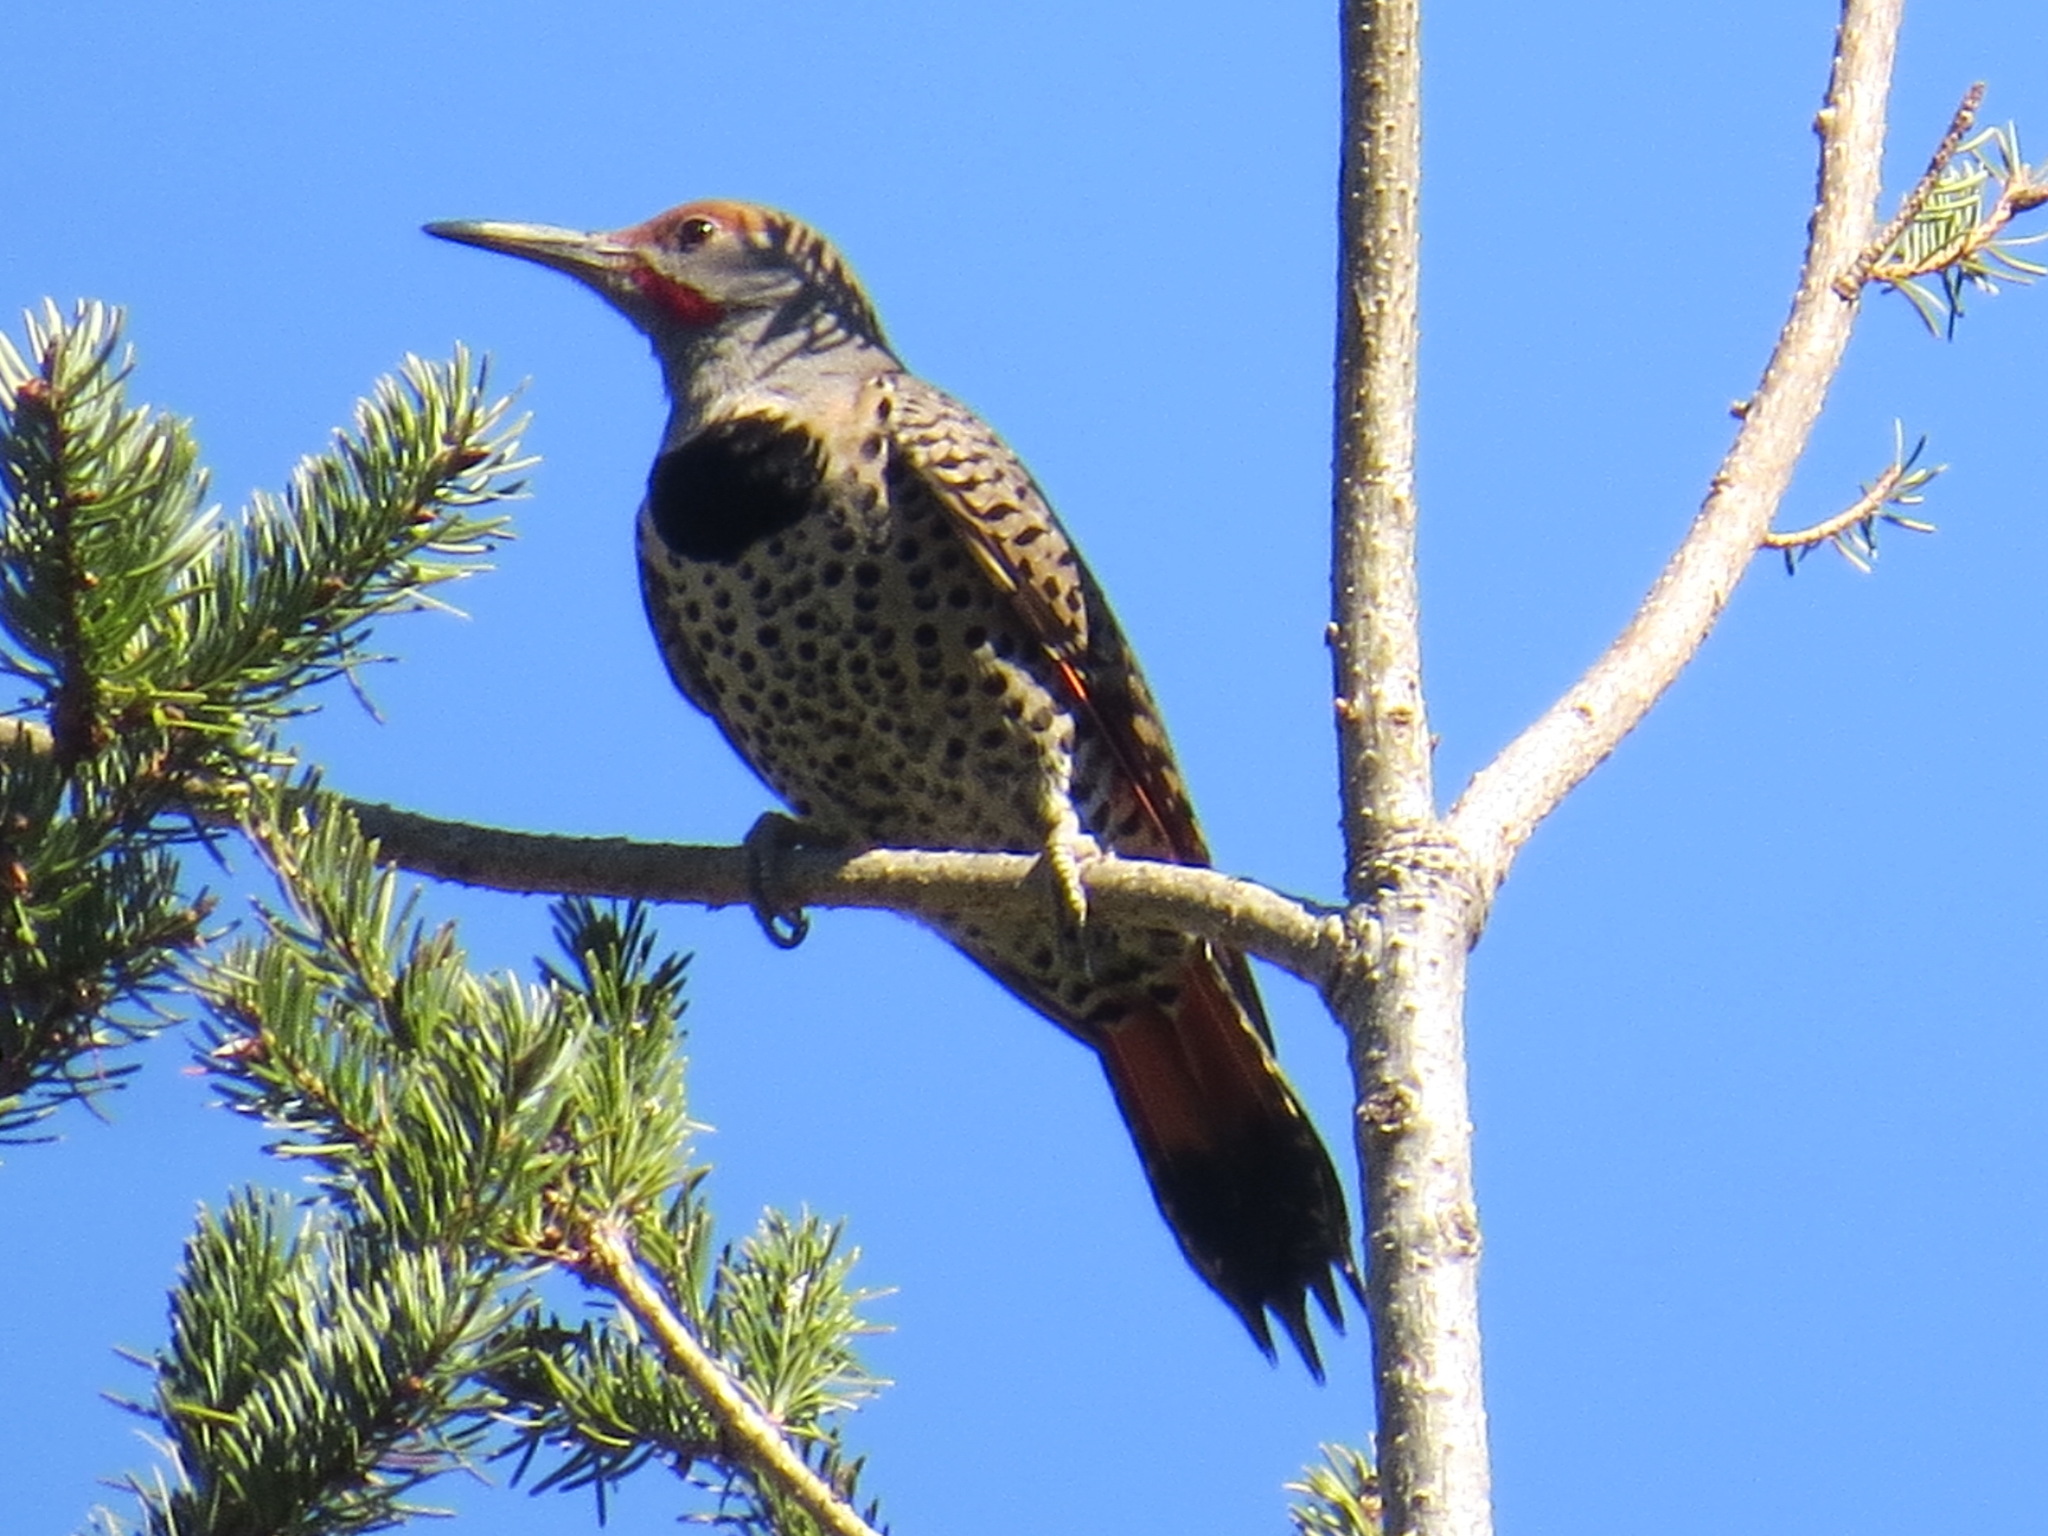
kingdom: Animalia
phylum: Chordata
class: Aves
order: Piciformes
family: Picidae
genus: Colaptes
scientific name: Colaptes auratus
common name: Northern flicker
